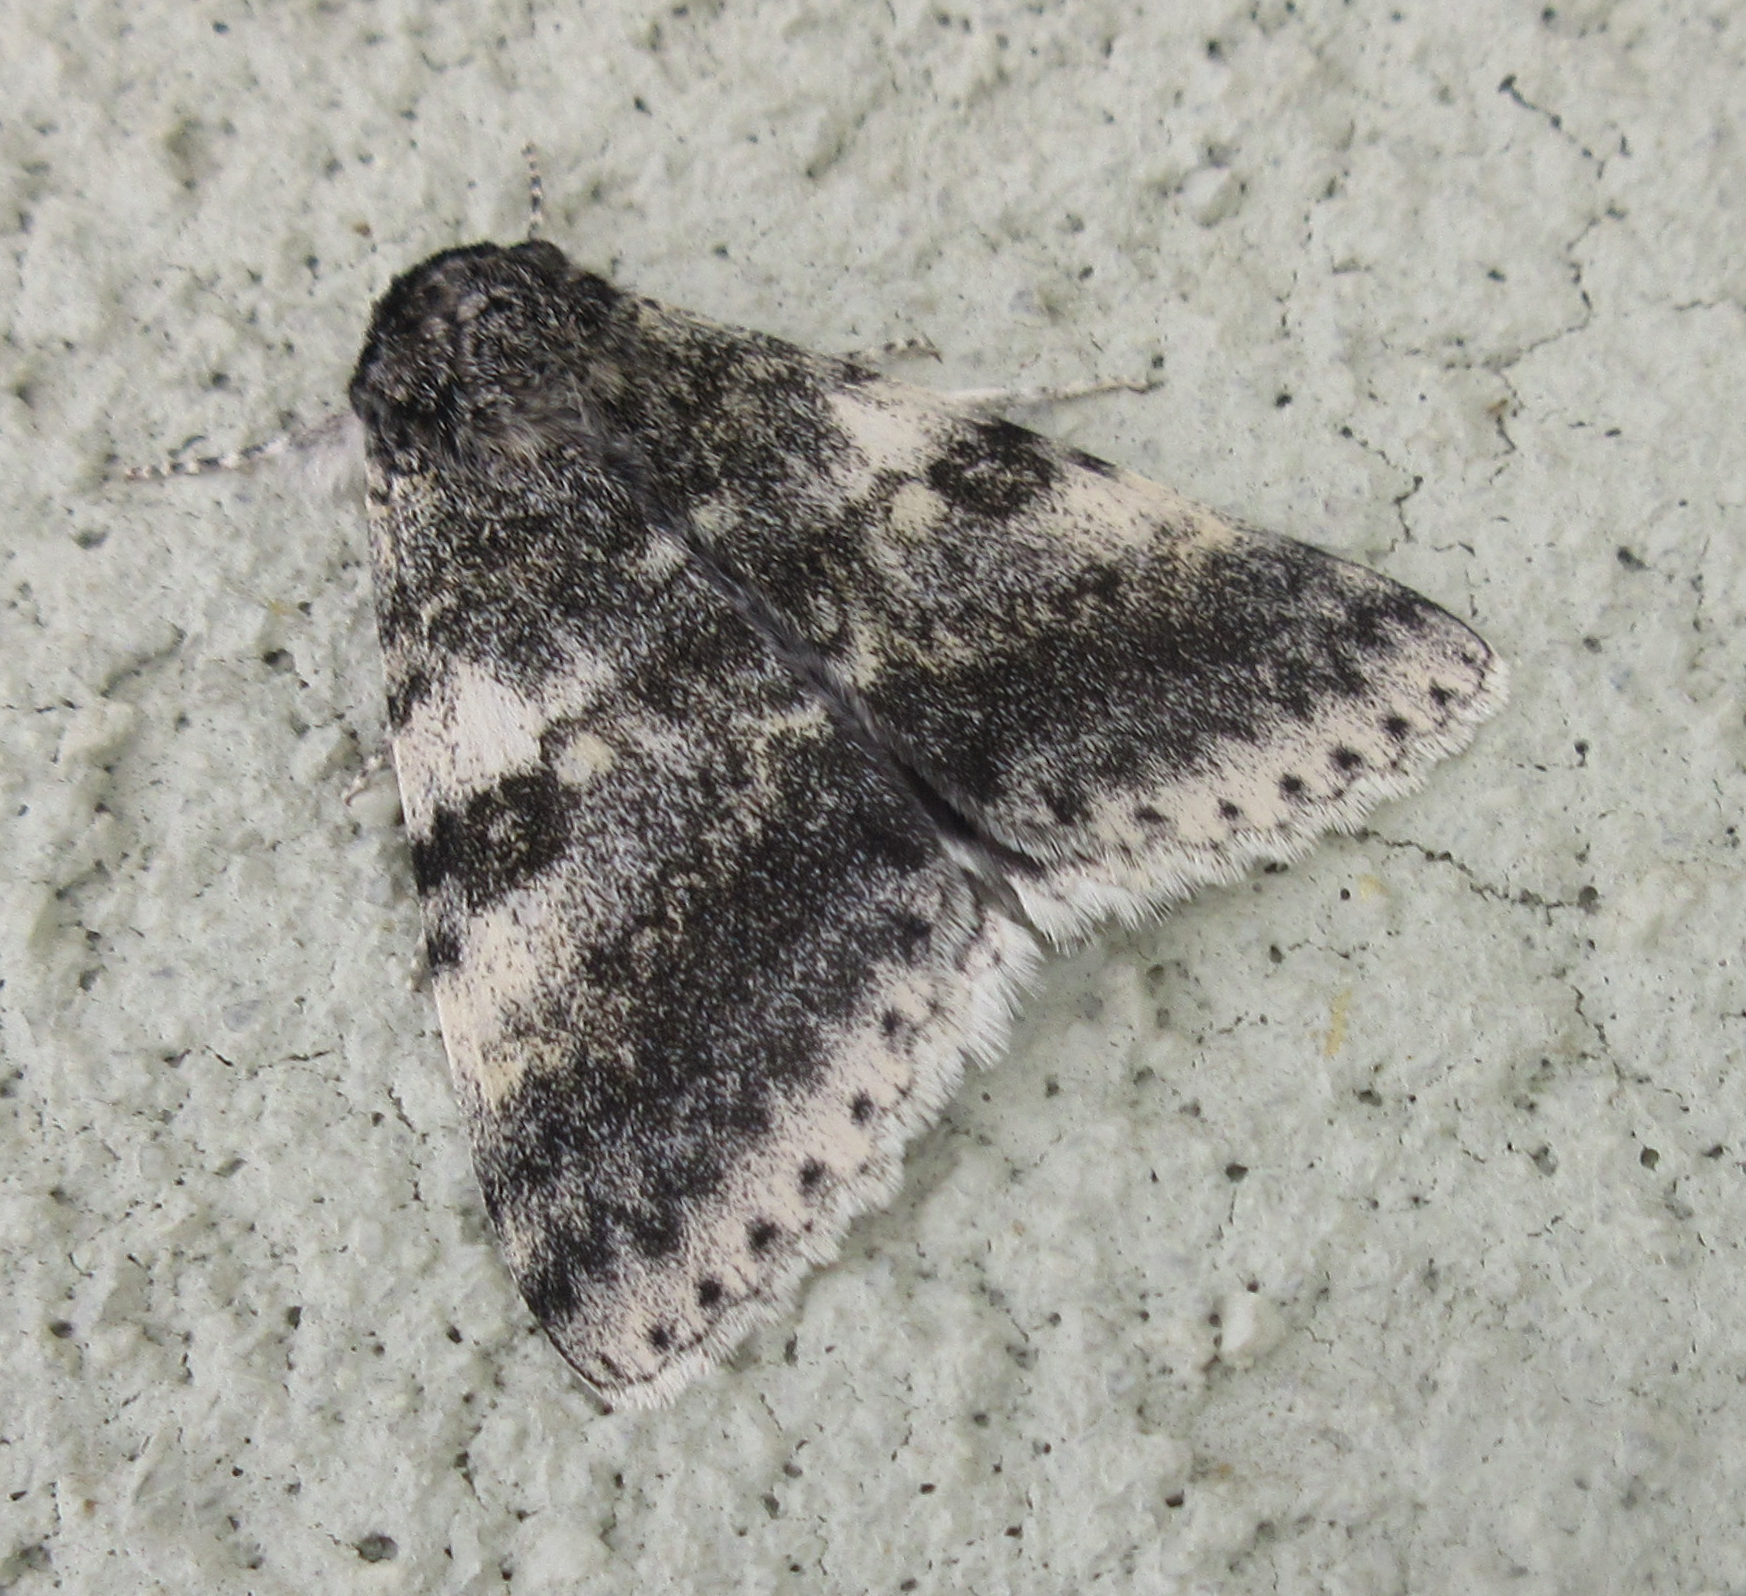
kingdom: Animalia
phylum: Arthropoda
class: Insecta
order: Lepidoptera
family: Erebidae
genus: Catocala
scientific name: Catocala relicta
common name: White underwing
